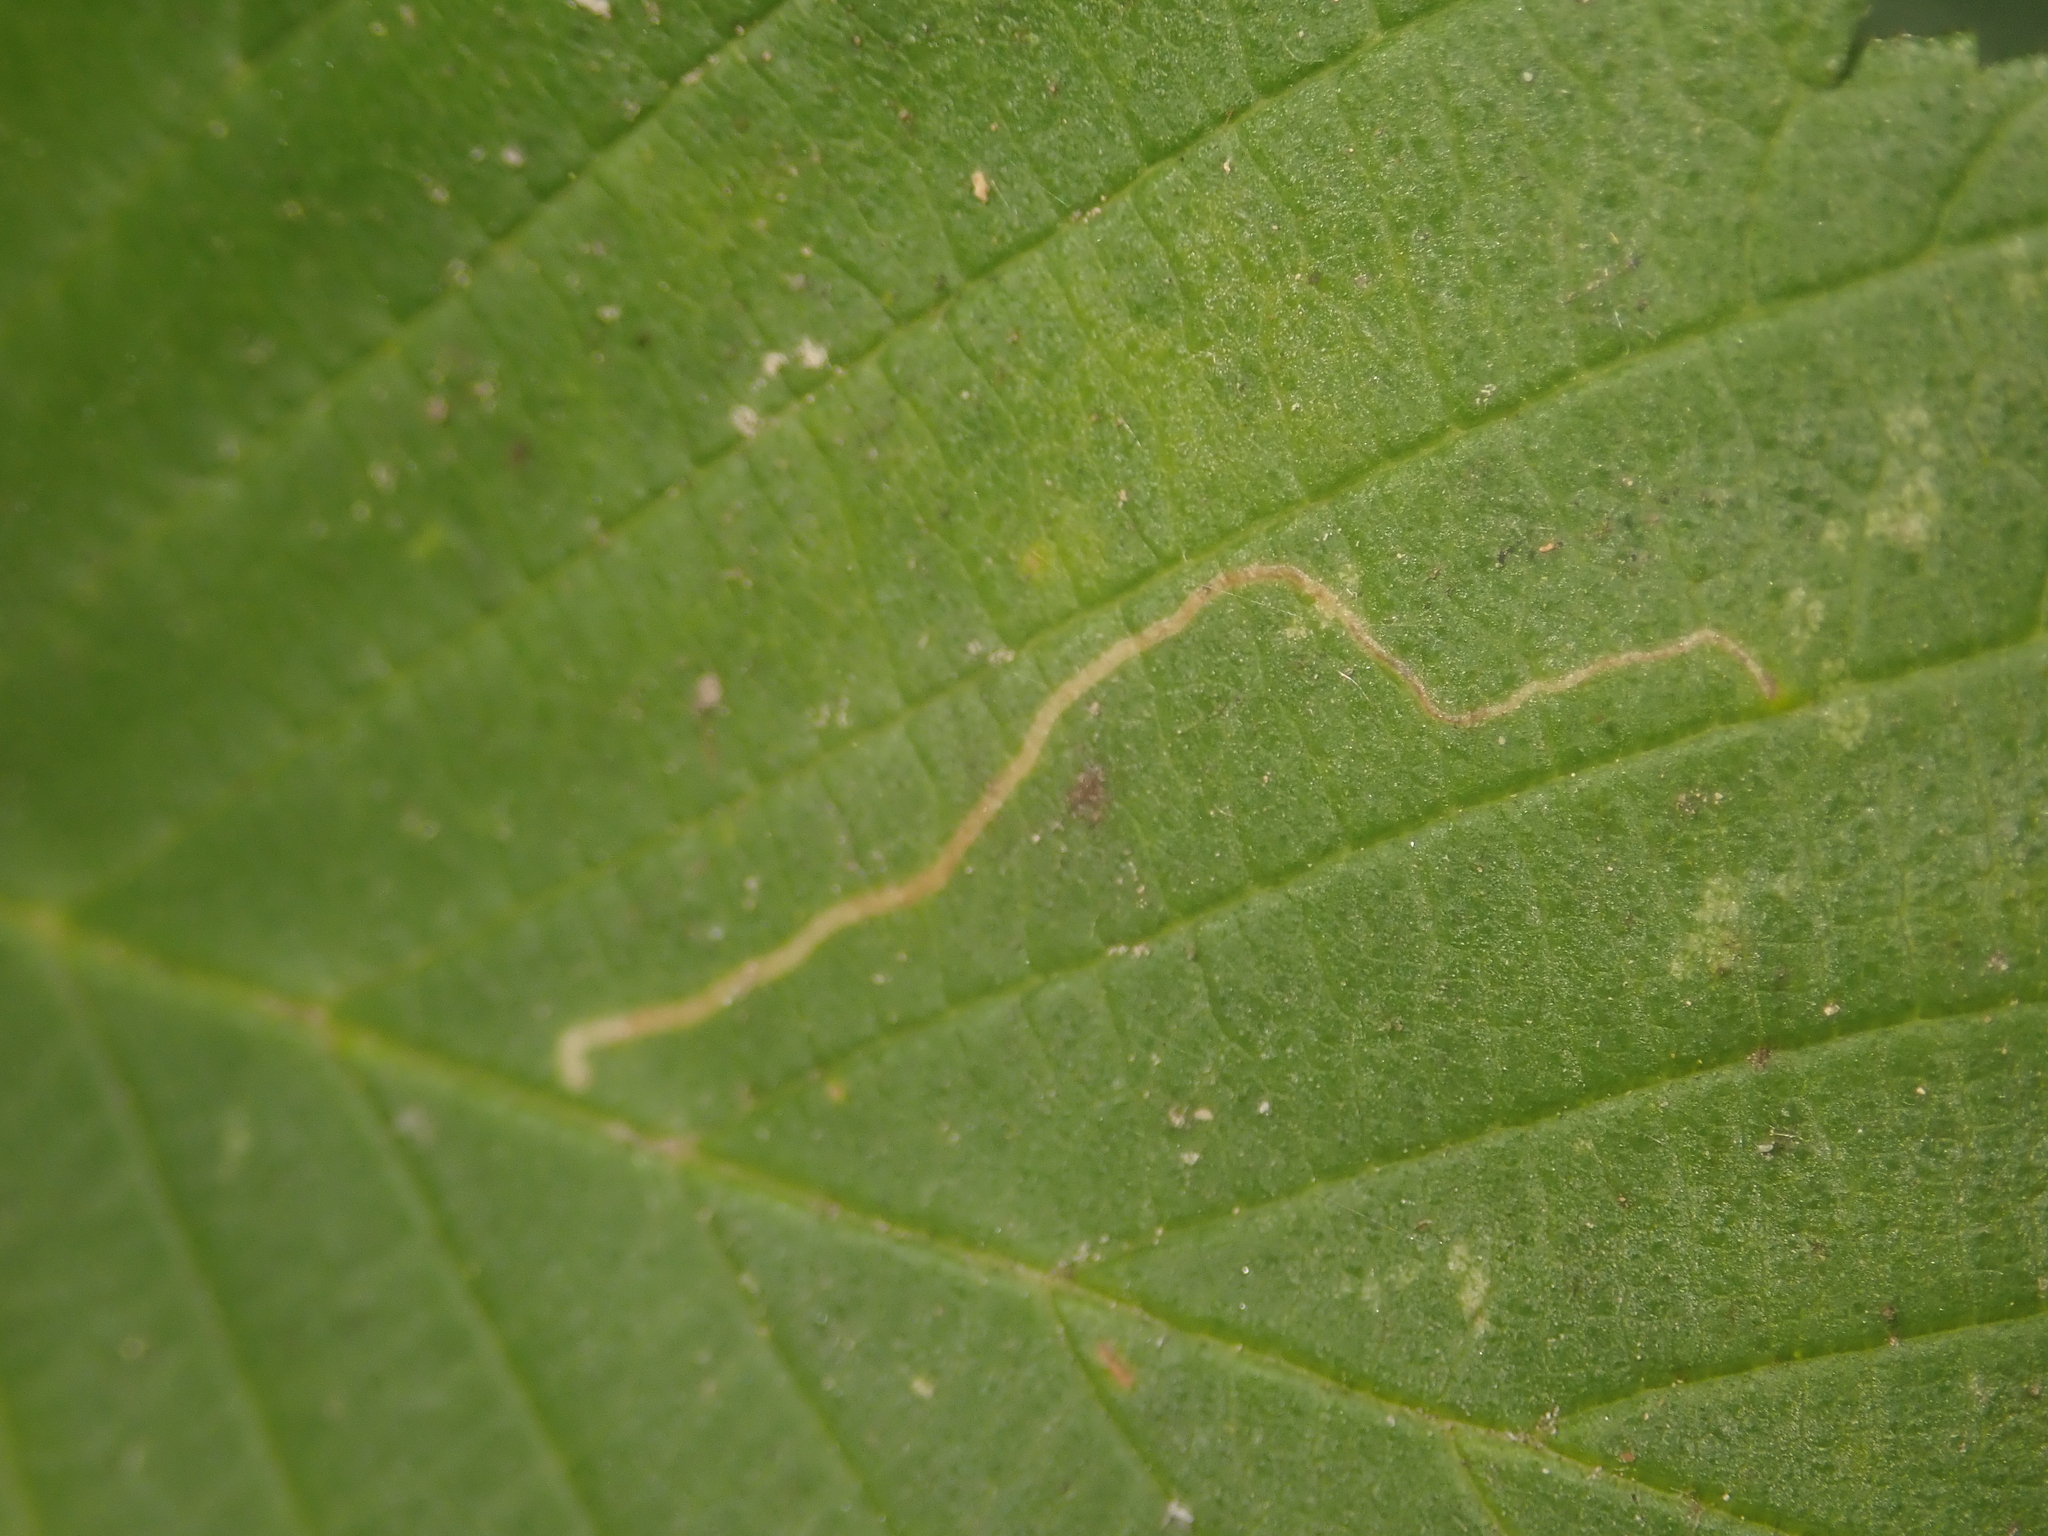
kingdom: Animalia
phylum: Arthropoda
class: Insecta
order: Lepidoptera
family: Nepticulidae
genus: Stigmella
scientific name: Stigmella ulmivora
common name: Barred elm pigmy
